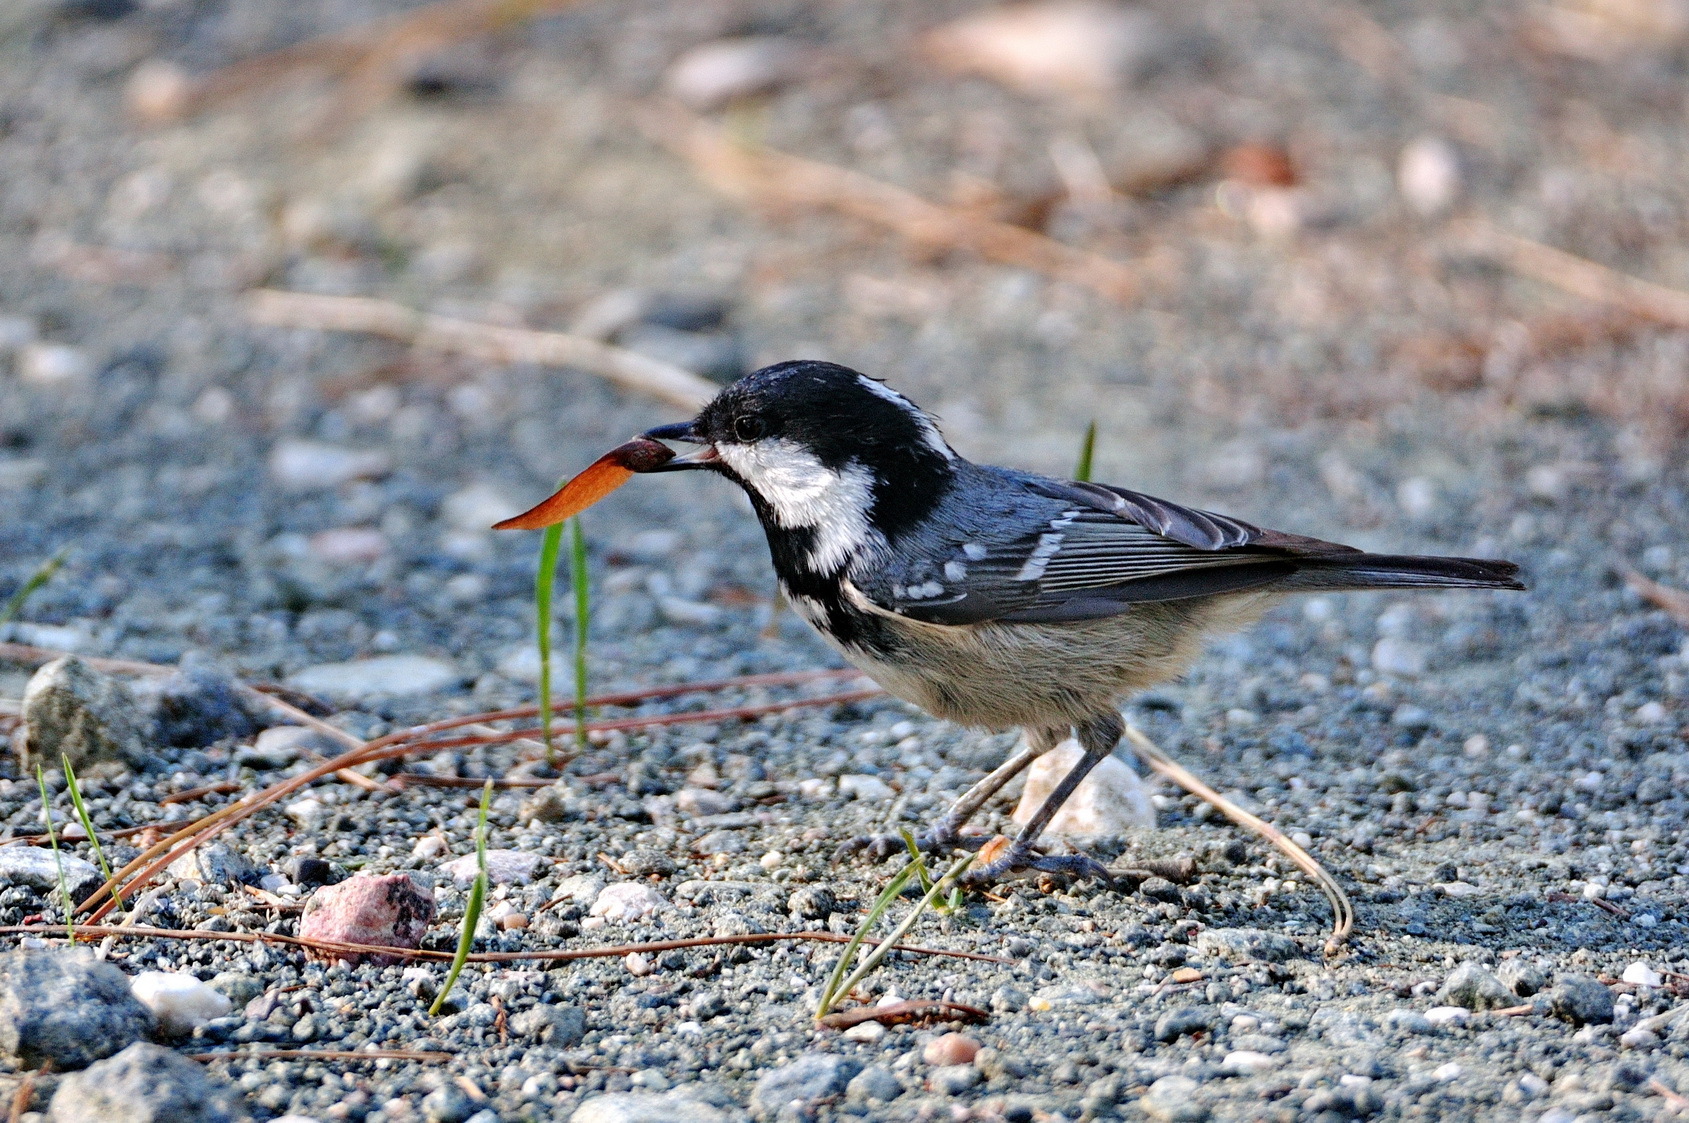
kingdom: Animalia
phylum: Chordata
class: Aves
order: Passeriformes
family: Paridae
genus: Periparus
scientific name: Periparus ater
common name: Coal tit
